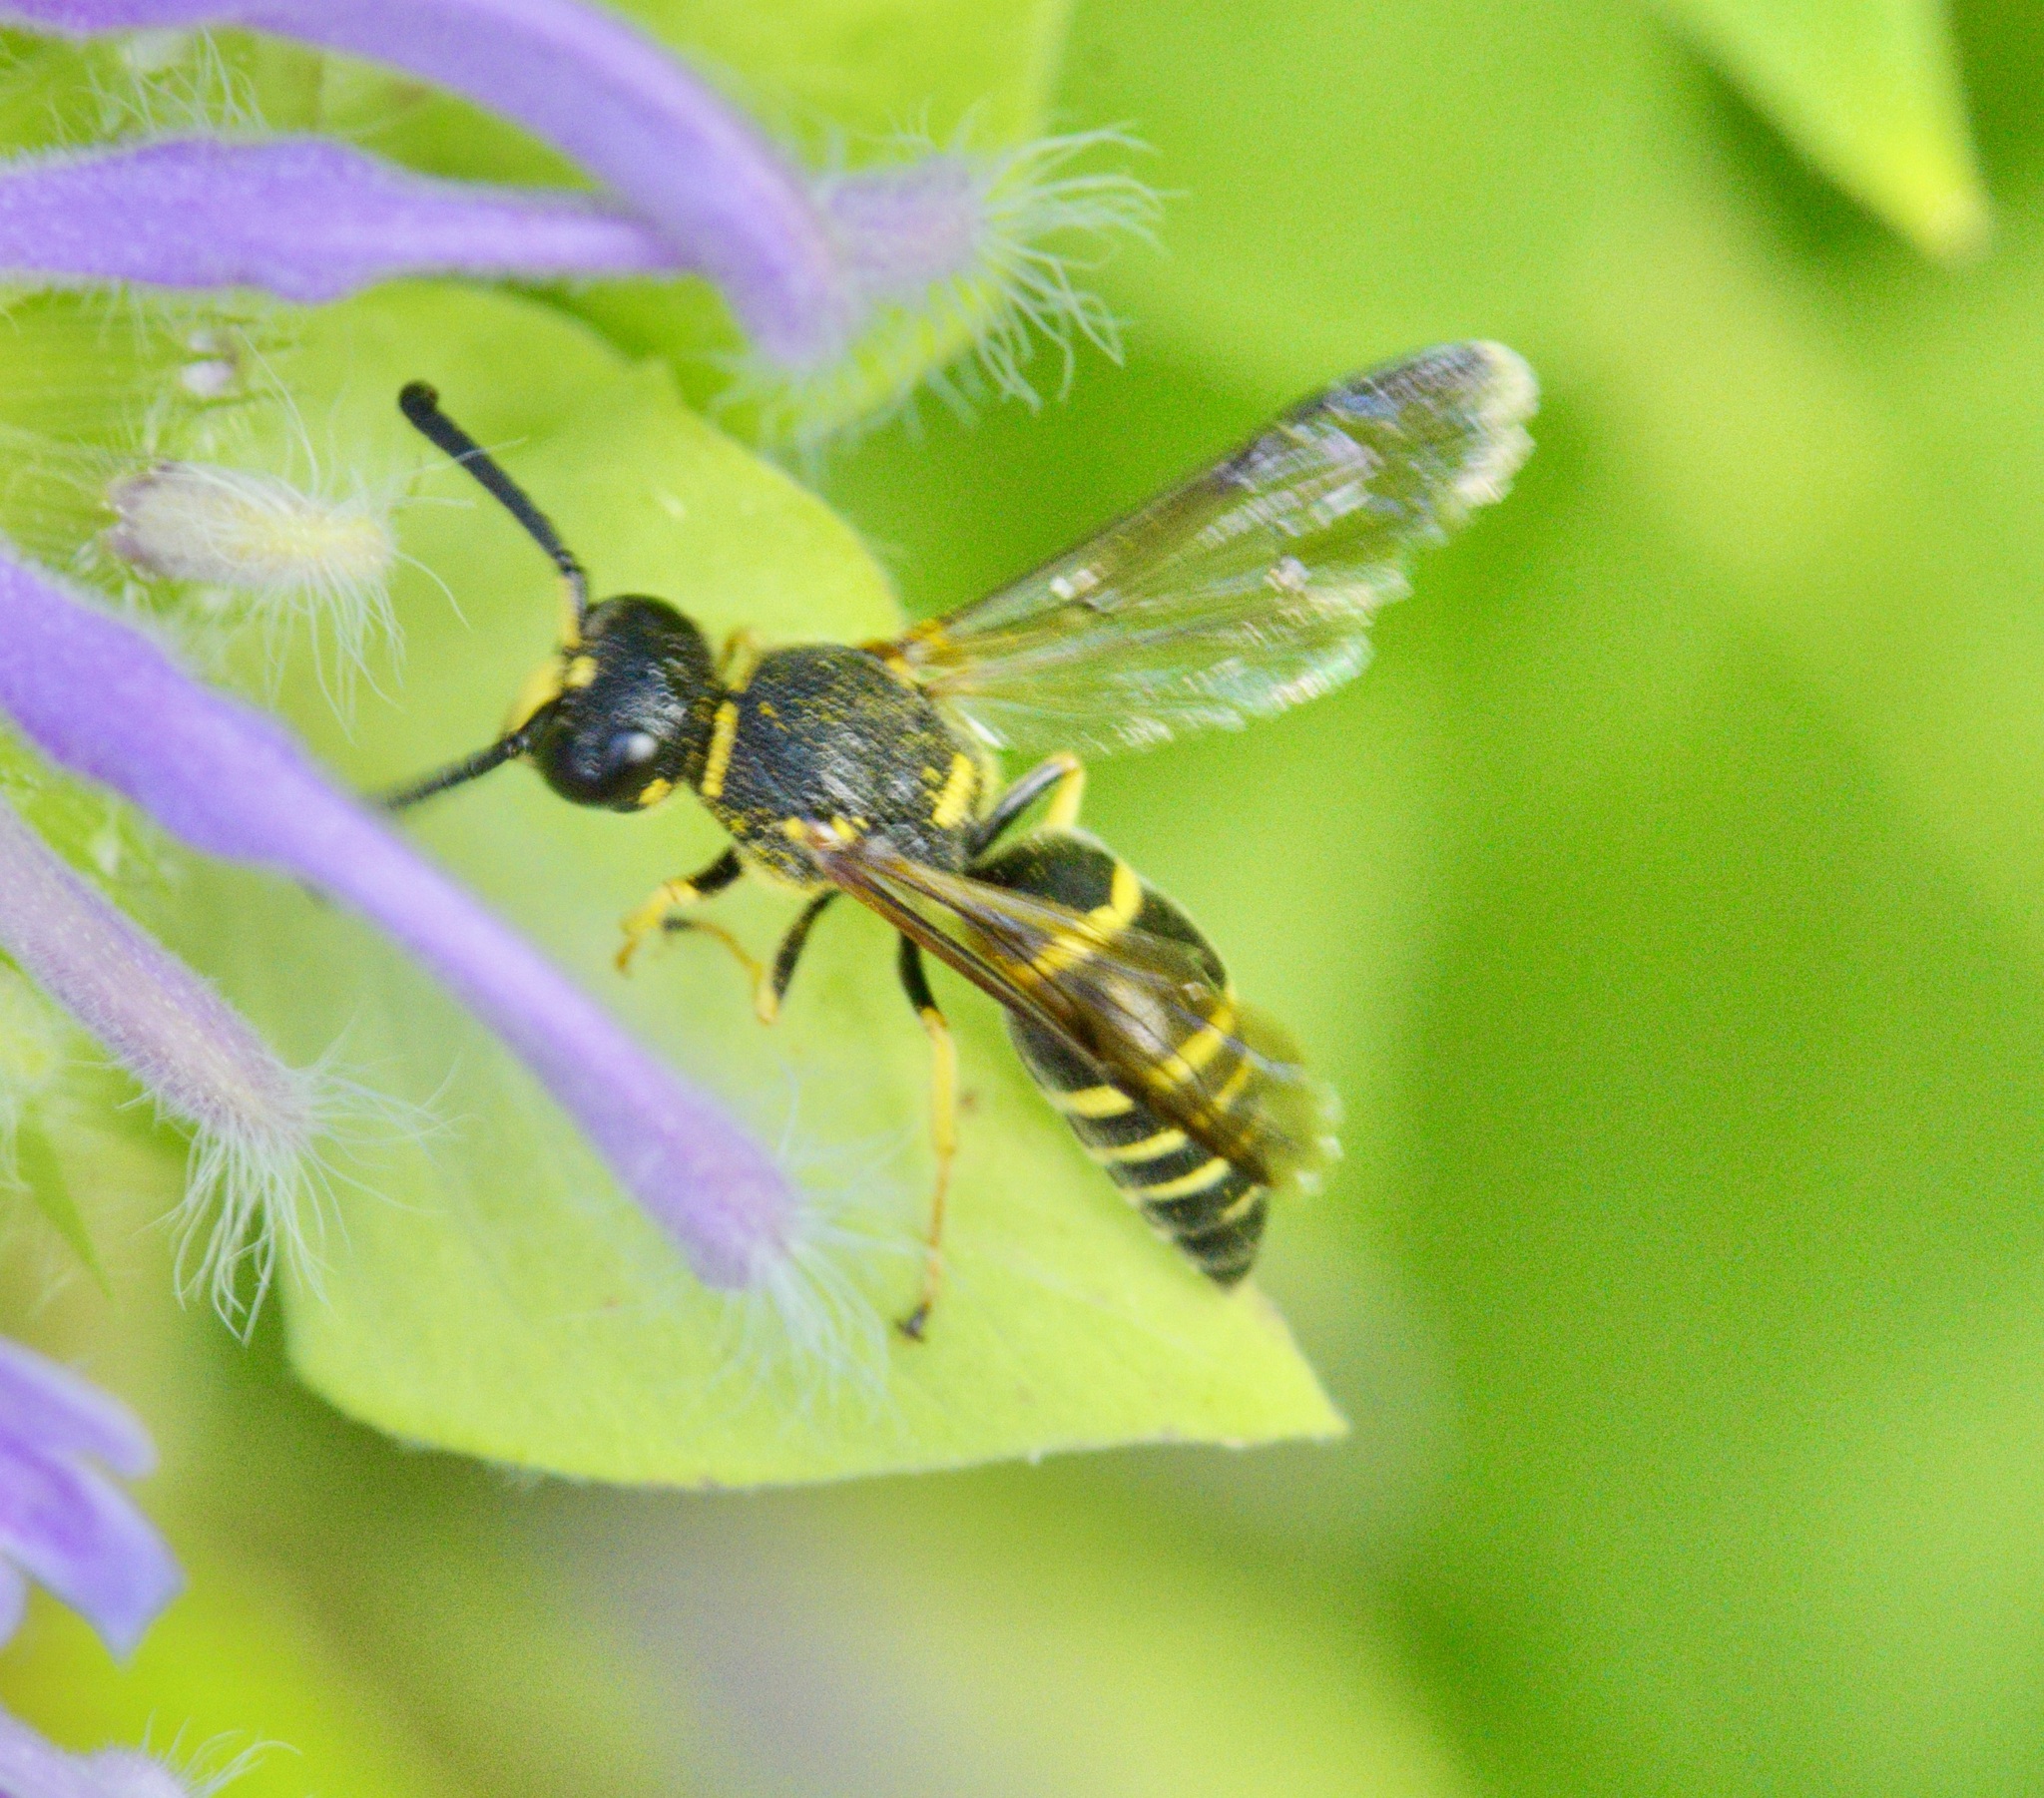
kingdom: Animalia
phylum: Arthropoda
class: Insecta
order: Hymenoptera
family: Eumenidae
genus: Euodynerus
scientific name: Euodynerus foraminatus
